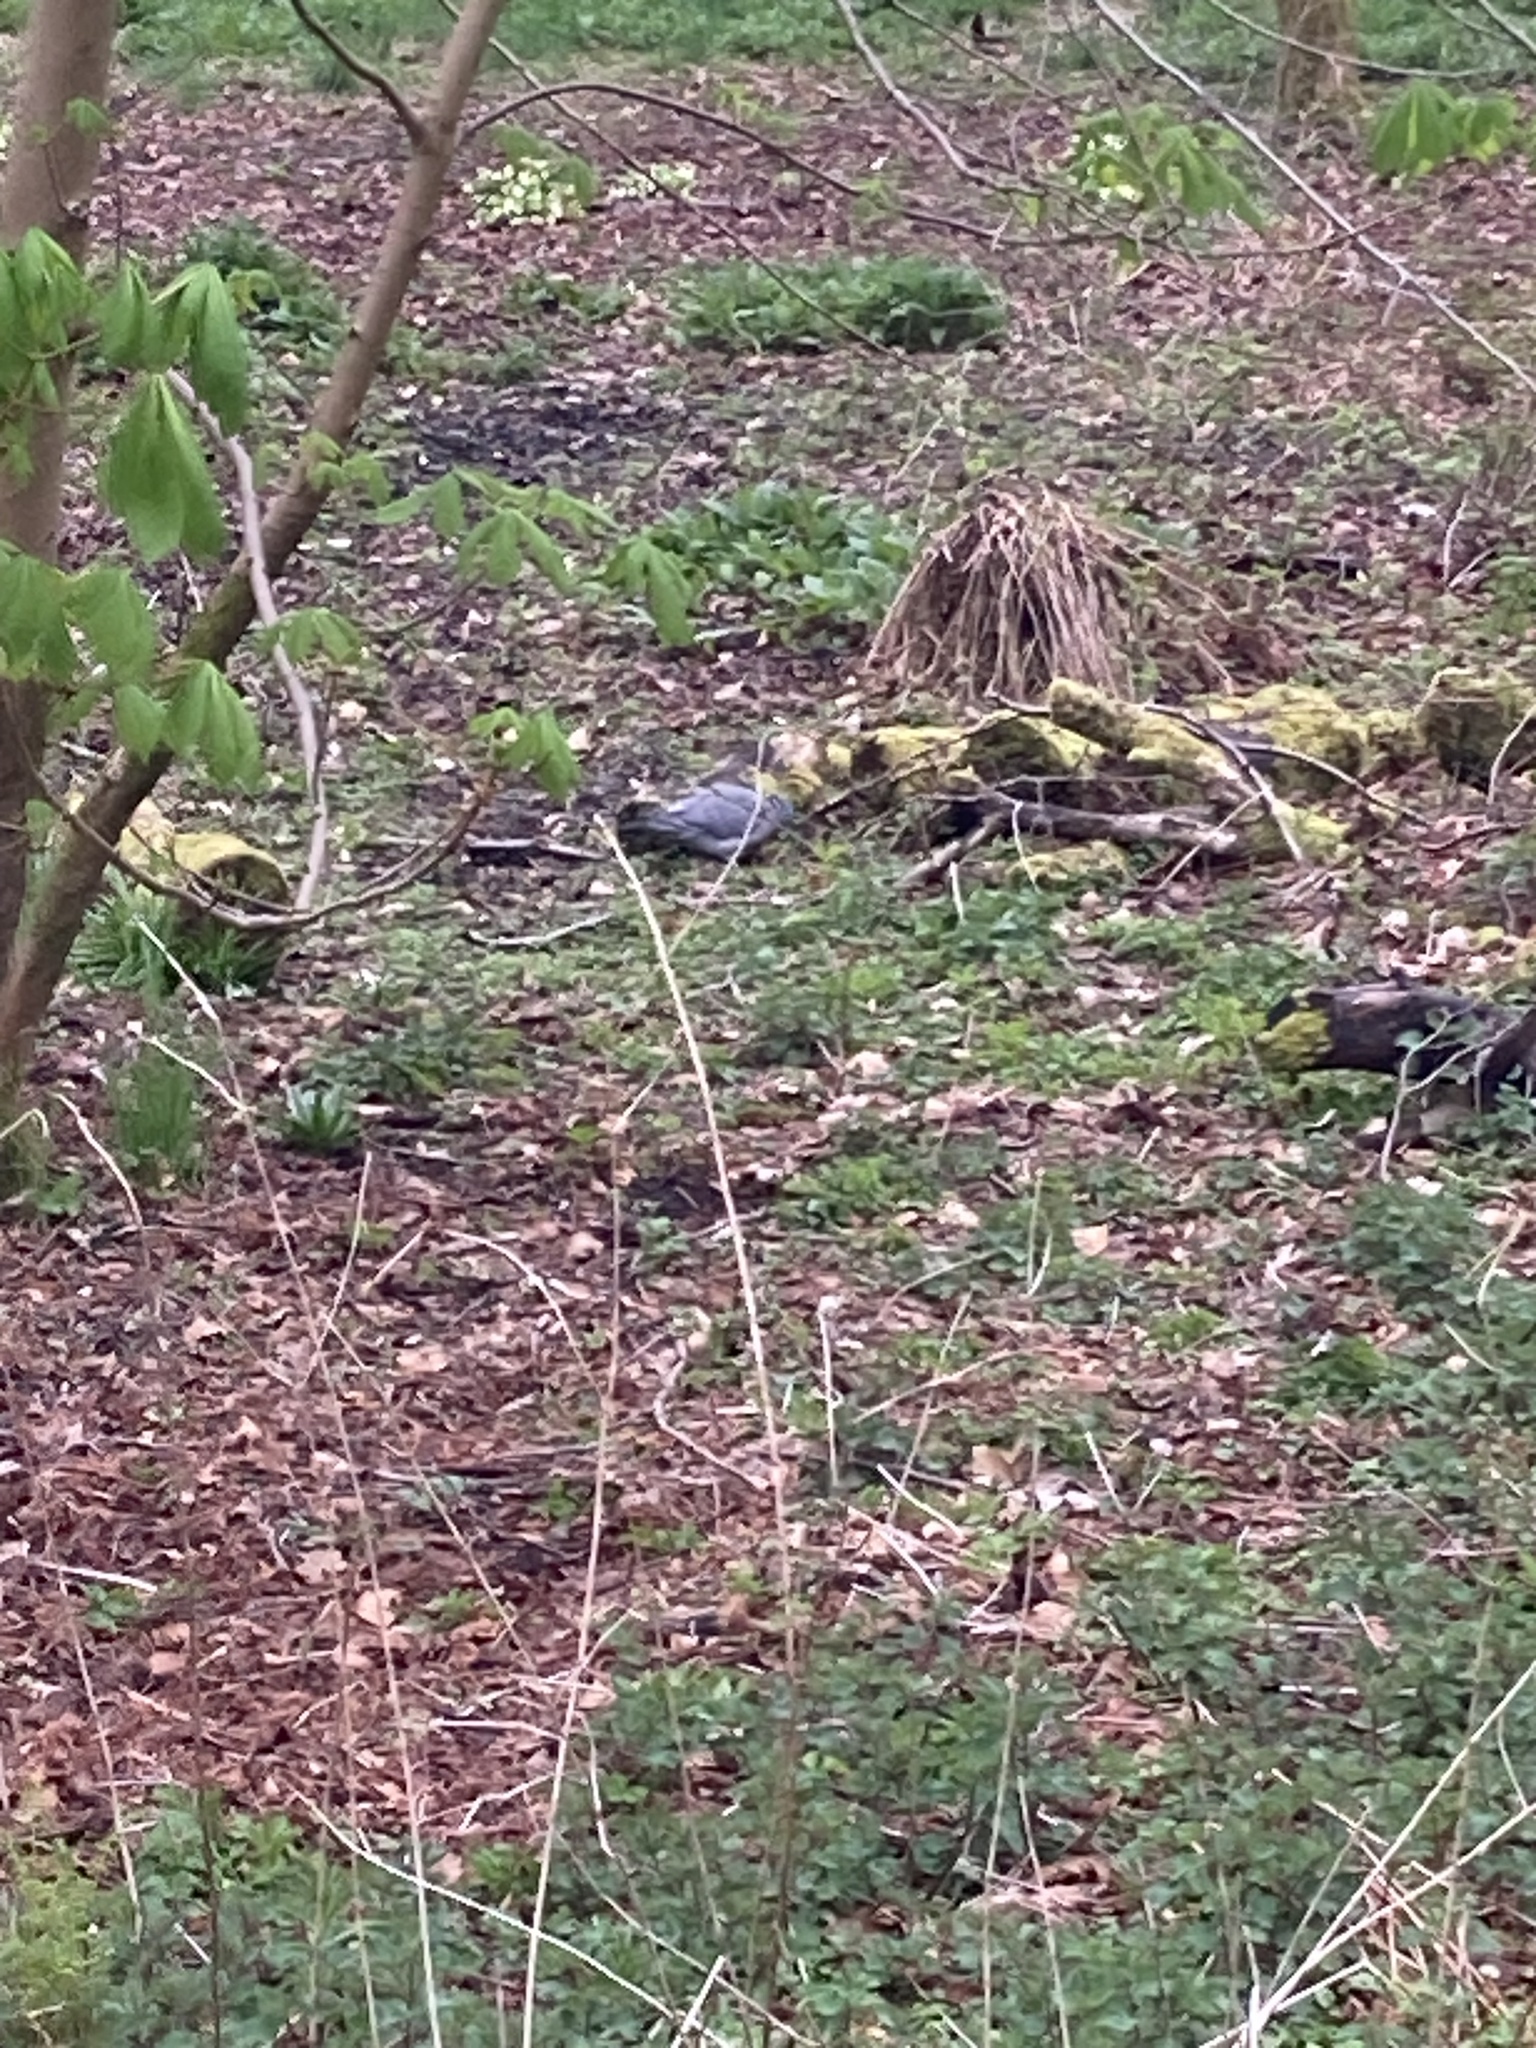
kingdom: Animalia
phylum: Chordata
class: Aves
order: Columbiformes
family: Columbidae
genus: Columba
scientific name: Columba palumbus
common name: Common wood pigeon
